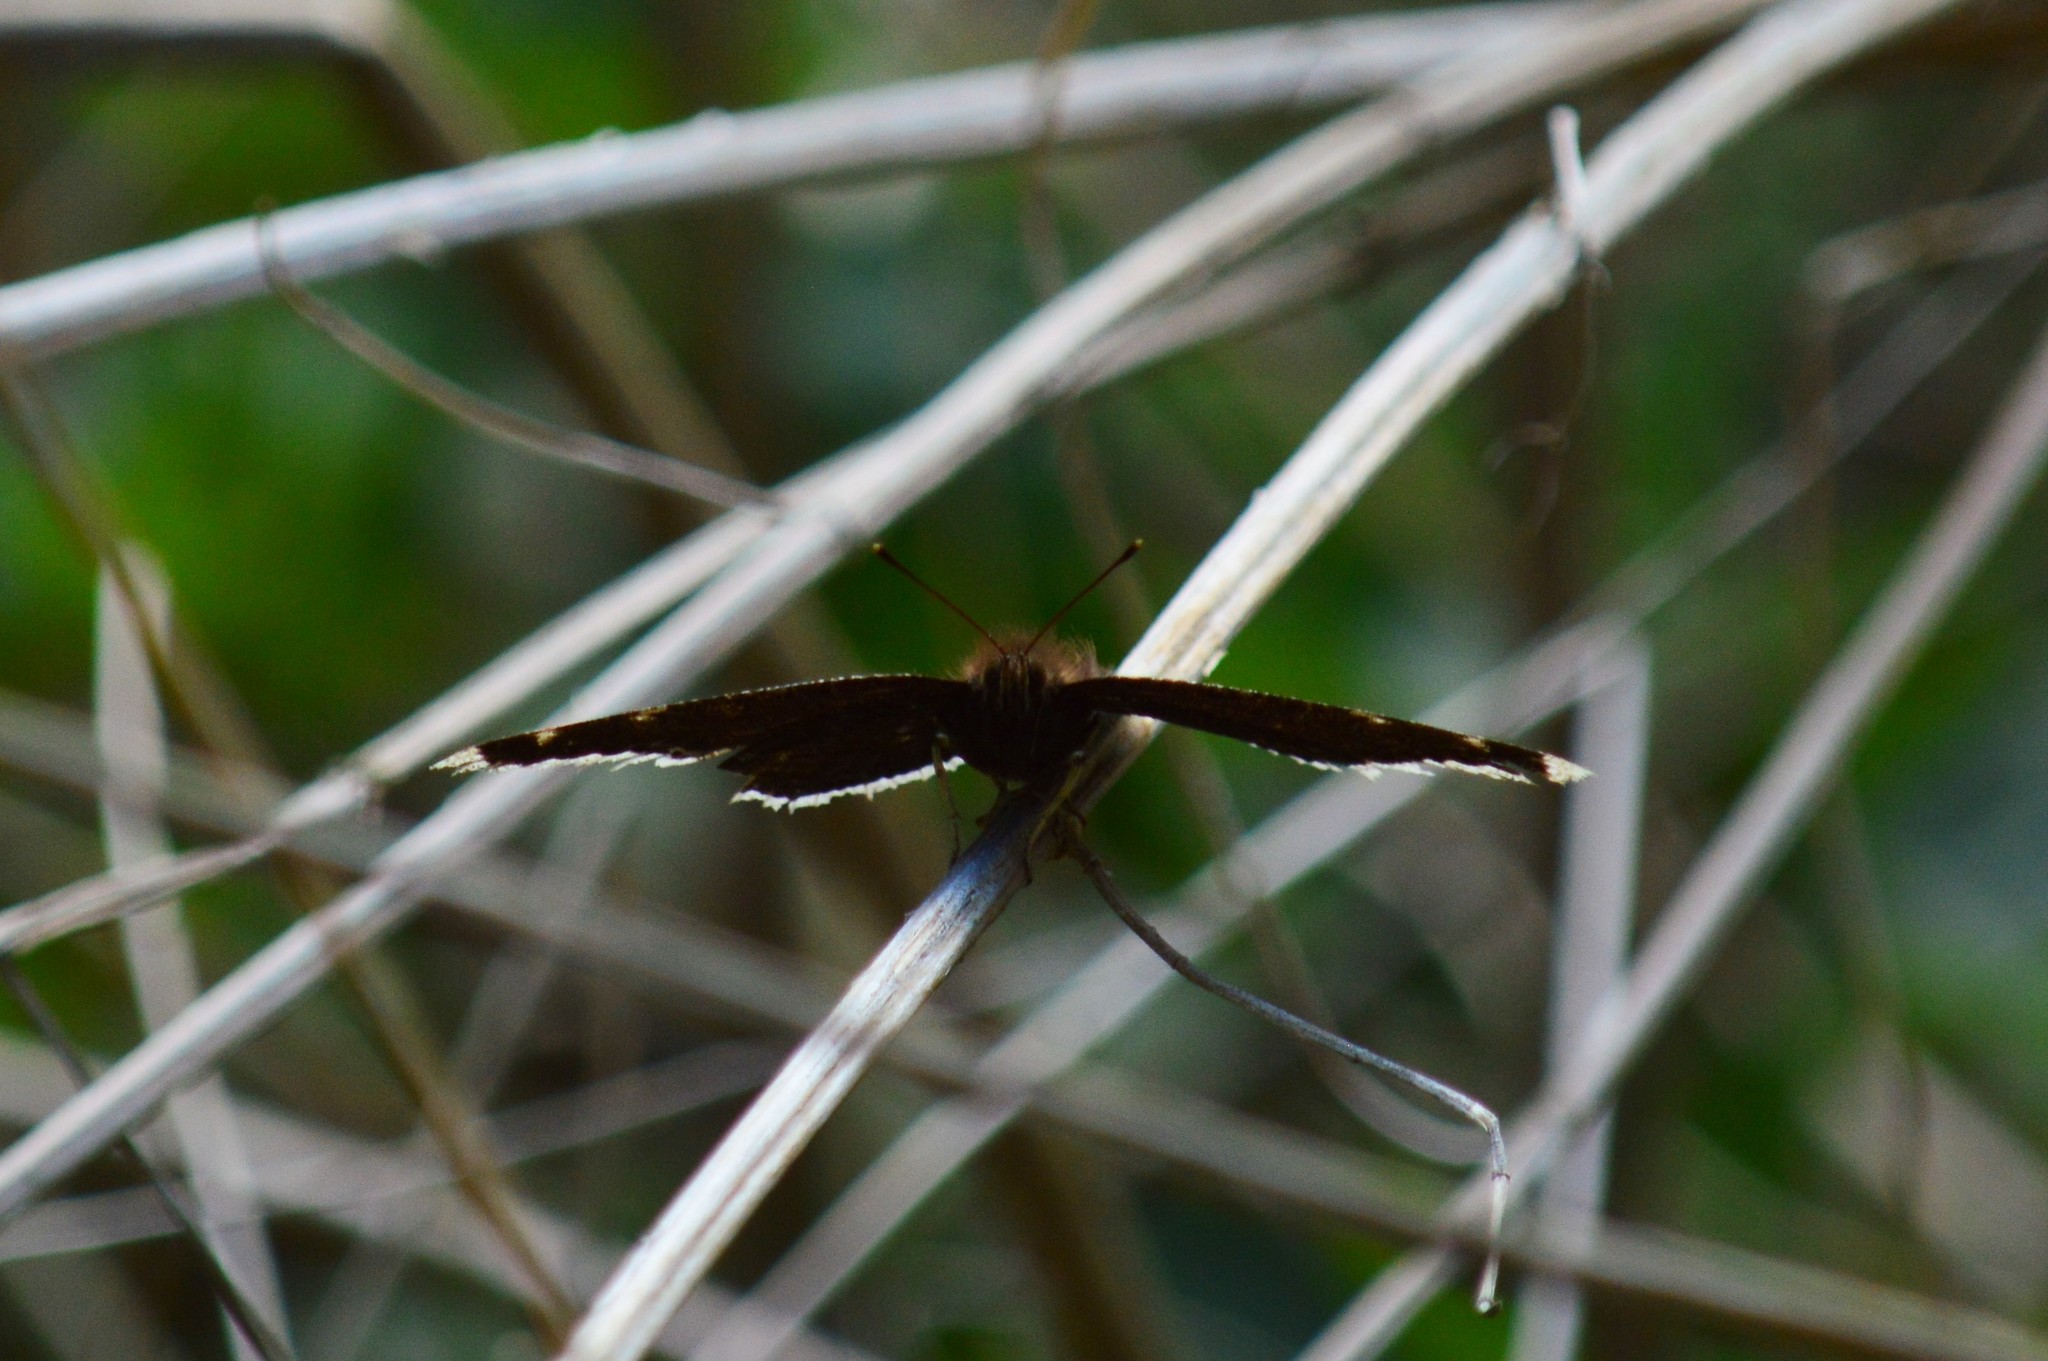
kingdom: Animalia
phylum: Arthropoda
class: Insecta
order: Lepidoptera
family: Nymphalidae
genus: Nymphalis
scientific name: Nymphalis antiopa
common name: Camberwell beauty
